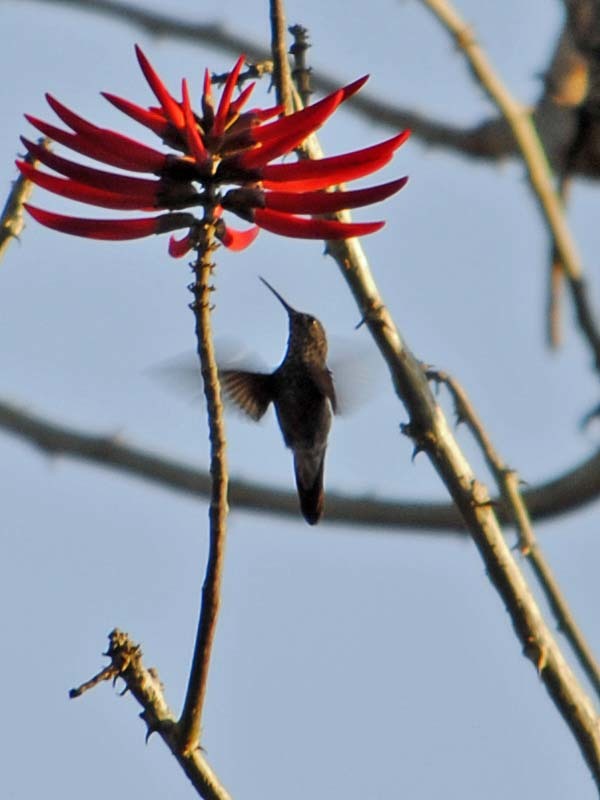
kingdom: Animalia
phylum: Chordata
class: Aves
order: Apodiformes
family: Trochilidae
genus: Saucerottia
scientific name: Saucerottia beryllina
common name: Berylline hummingbird
